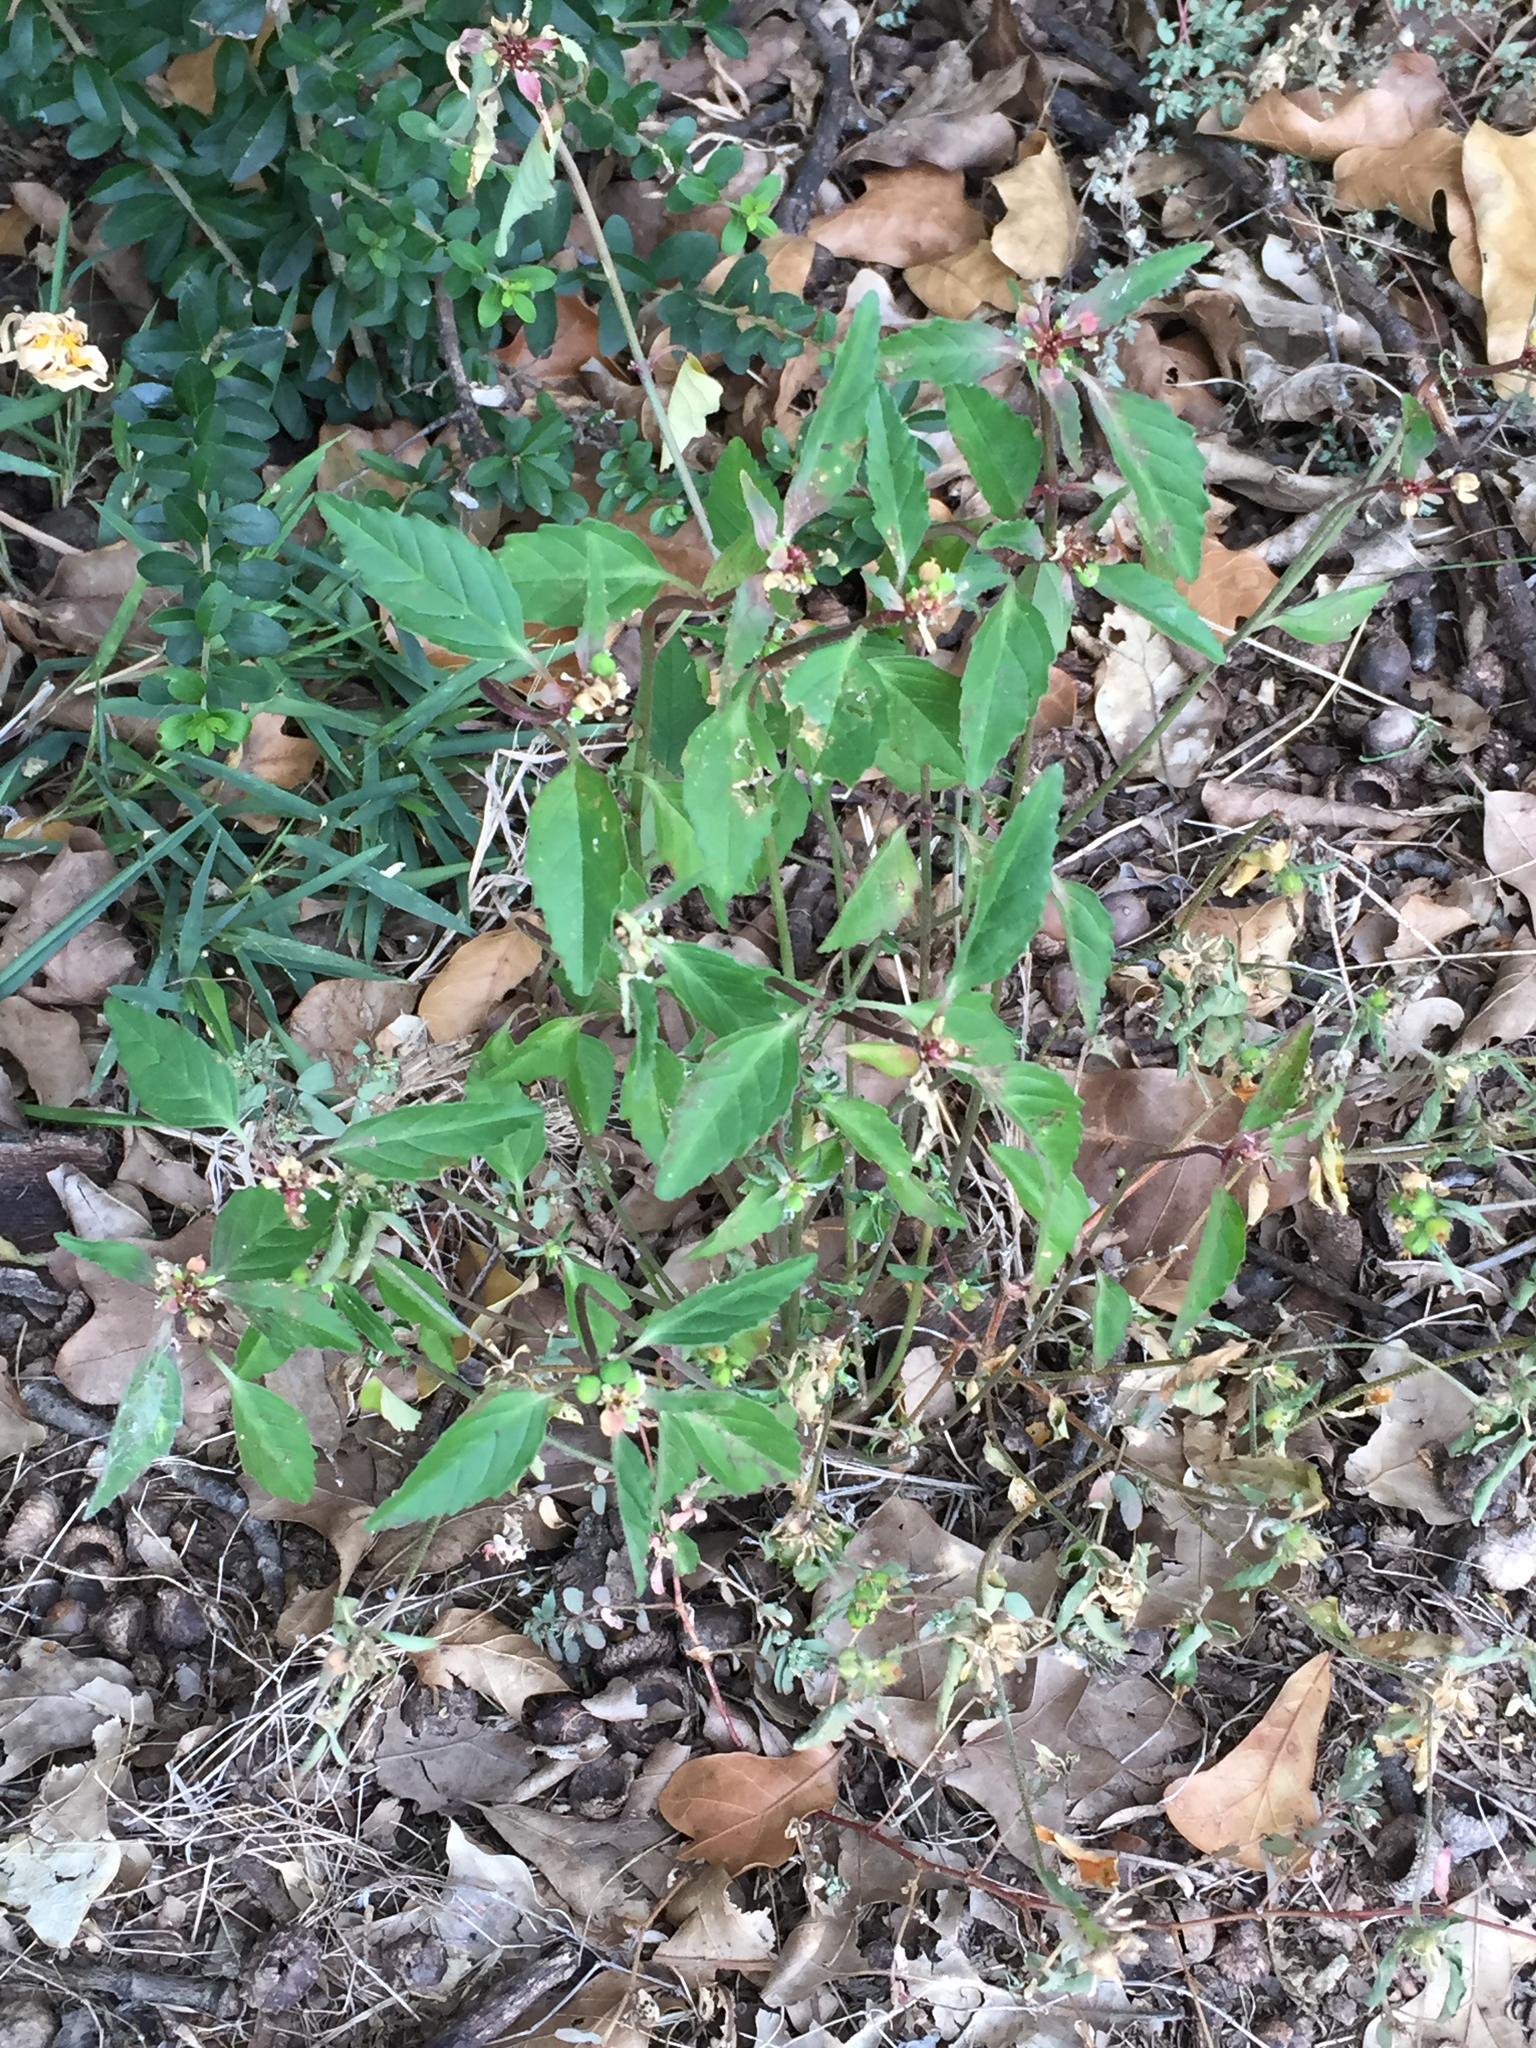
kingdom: Plantae
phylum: Tracheophyta
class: Magnoliopsida
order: Malpighiales
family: Euphorbiaceae
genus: Euphorbia
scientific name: Euphorbia dentata
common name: Dentate spurge
